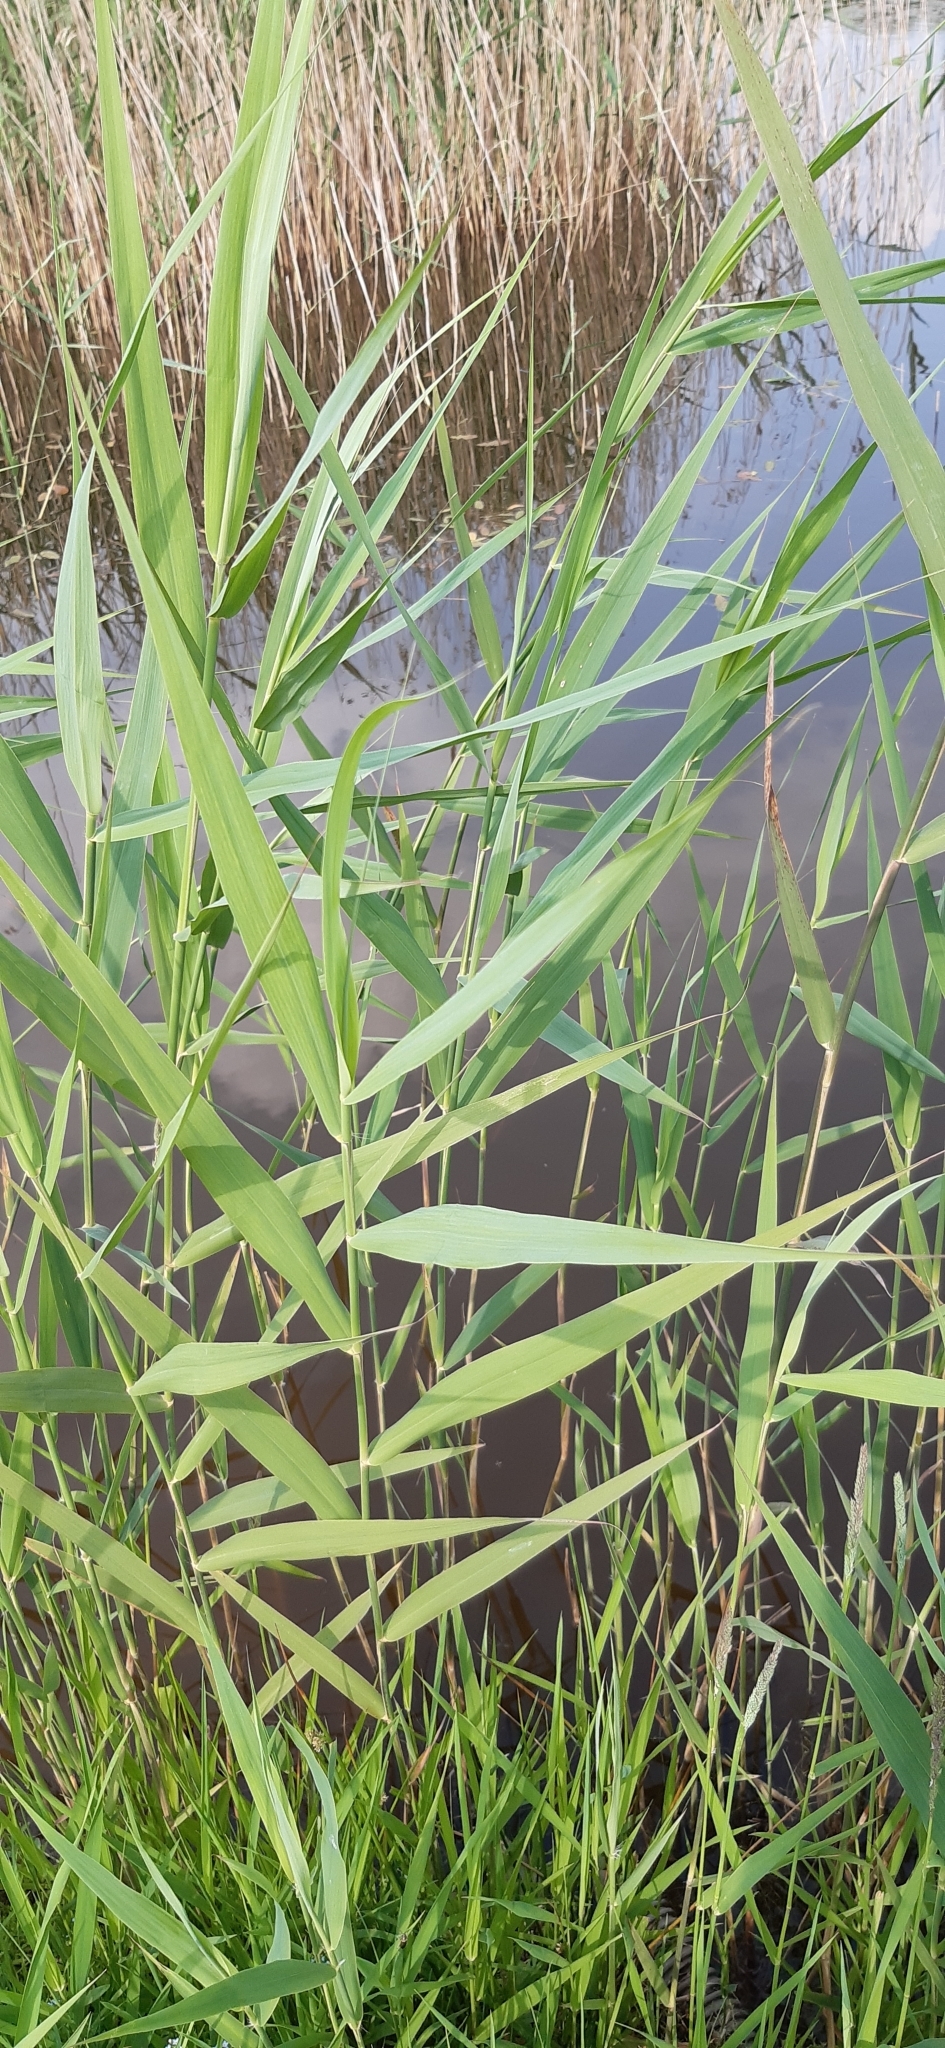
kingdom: Plantae
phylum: Tracheophyta
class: Liliopsida
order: Poales
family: Poaceae
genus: Phragmites
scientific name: Phragmites australis
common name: Common reed
